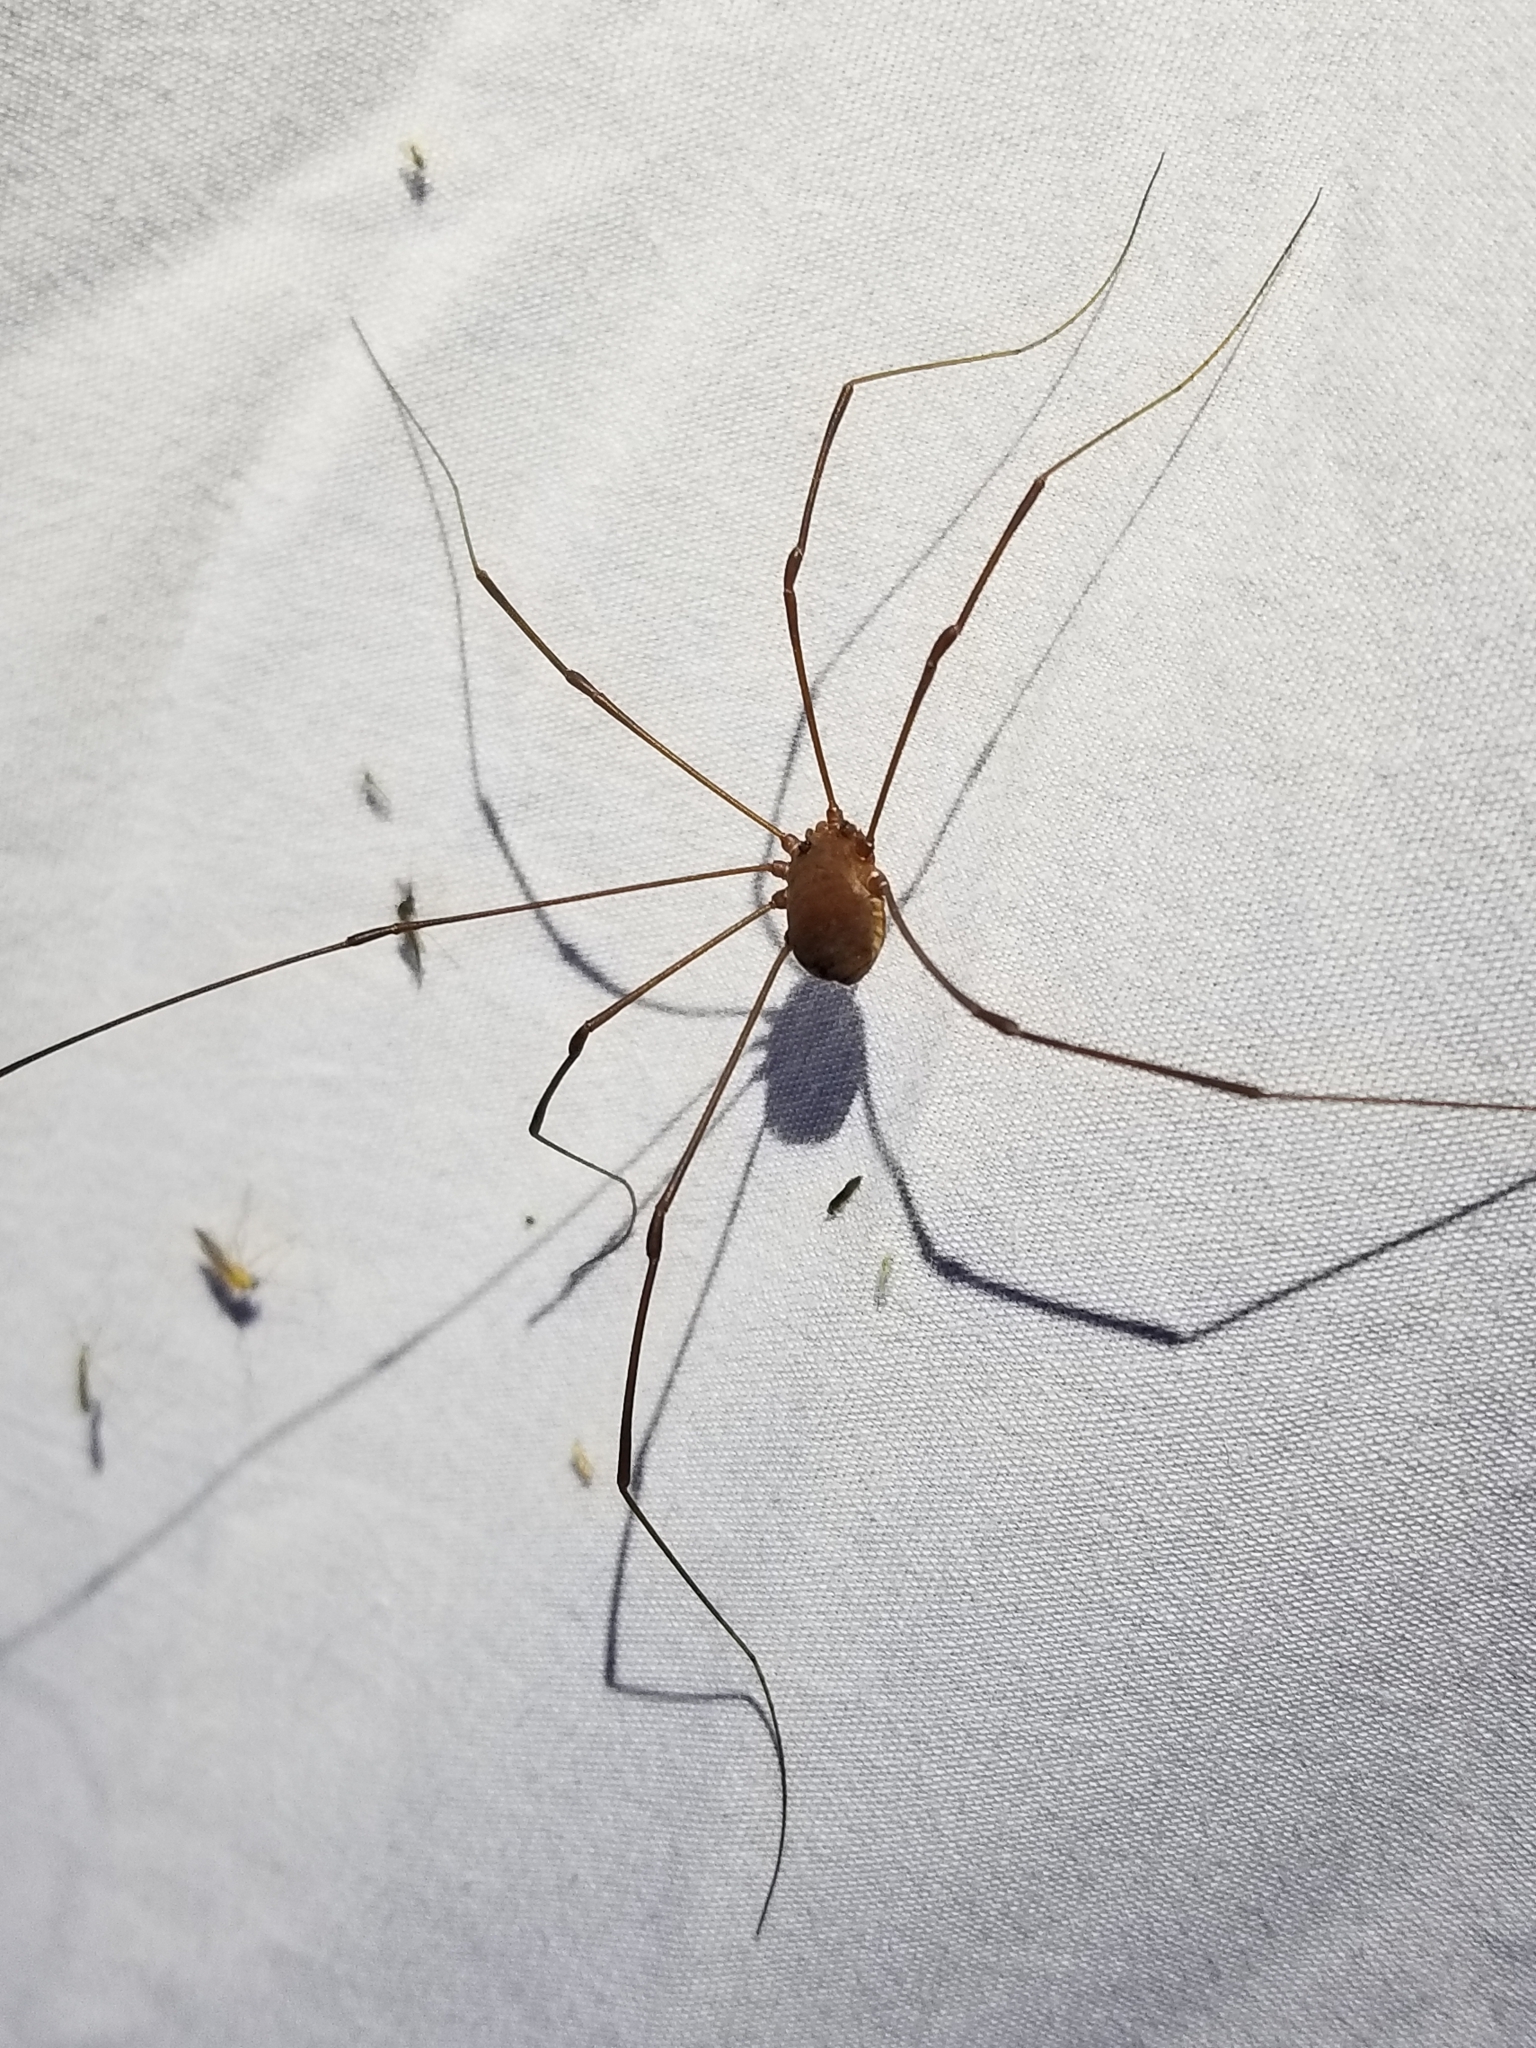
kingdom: Animalia
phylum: Arthropoda
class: Arachnida
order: Opiliones
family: Sclerosomatidae
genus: Leiobunum
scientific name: Leiobunum flavum
